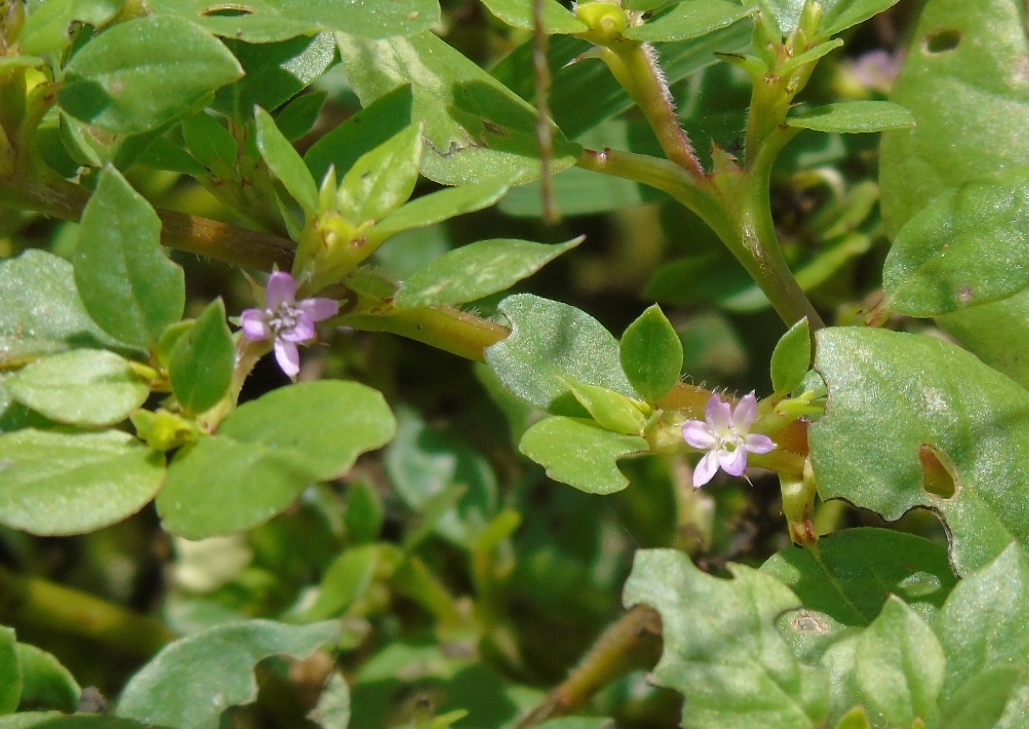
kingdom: Plantae
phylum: Tracheophyta
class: Magnoliopsida
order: Caryophyllales
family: Aizoaceae
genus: Trianthema
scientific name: Trianthema portulacastrum
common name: Desert horsepurslane
